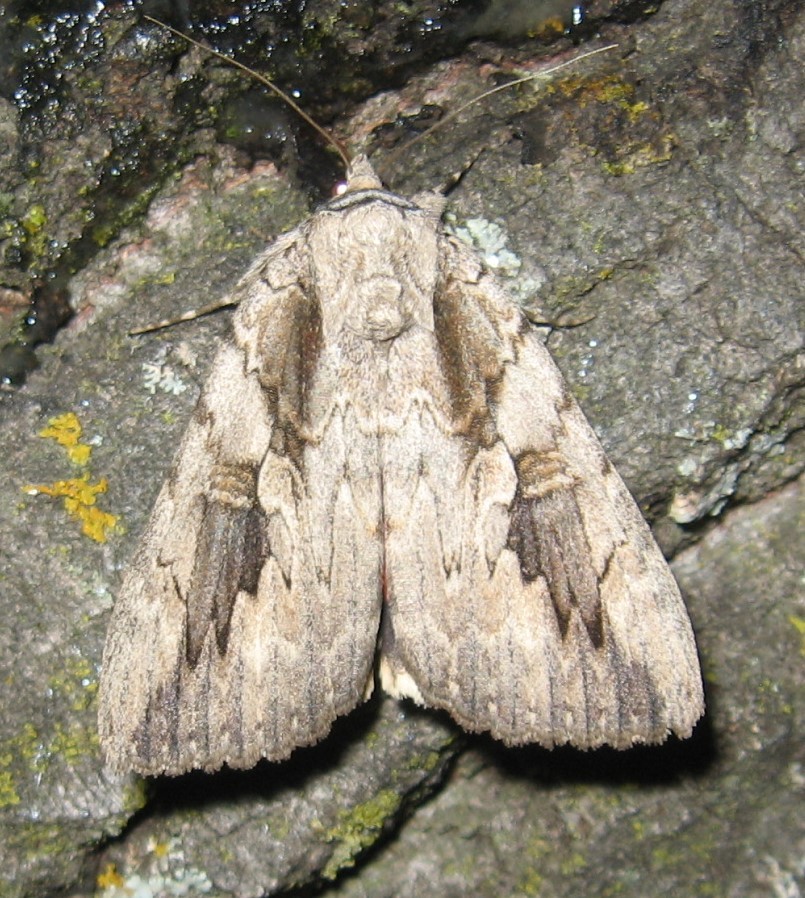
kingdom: Animalia
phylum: Arthropoda
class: Insecta
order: Lepidoptera
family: Erebidae
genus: Catocala
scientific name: Catocala amatrix
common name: Sweetheart underwing
